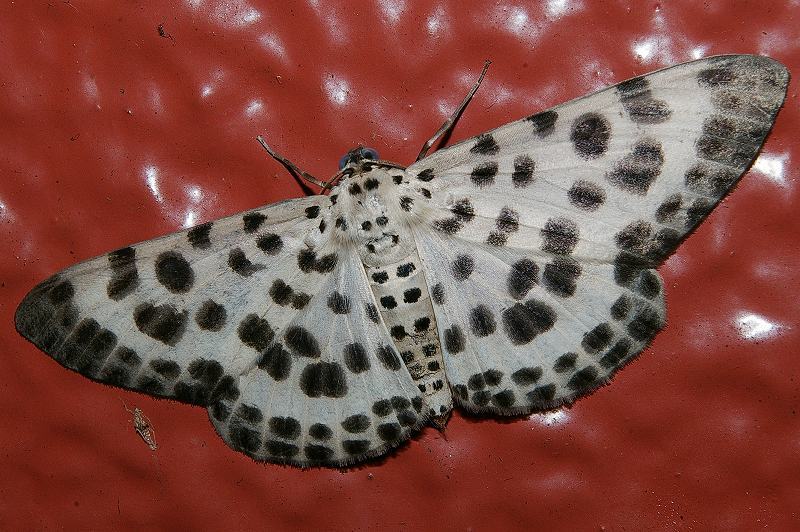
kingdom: Animalia
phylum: Arthropoda
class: Insecta
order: Lepidoptera
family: Geometridae
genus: Antipercnia
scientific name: Antipercnia albinigrata
